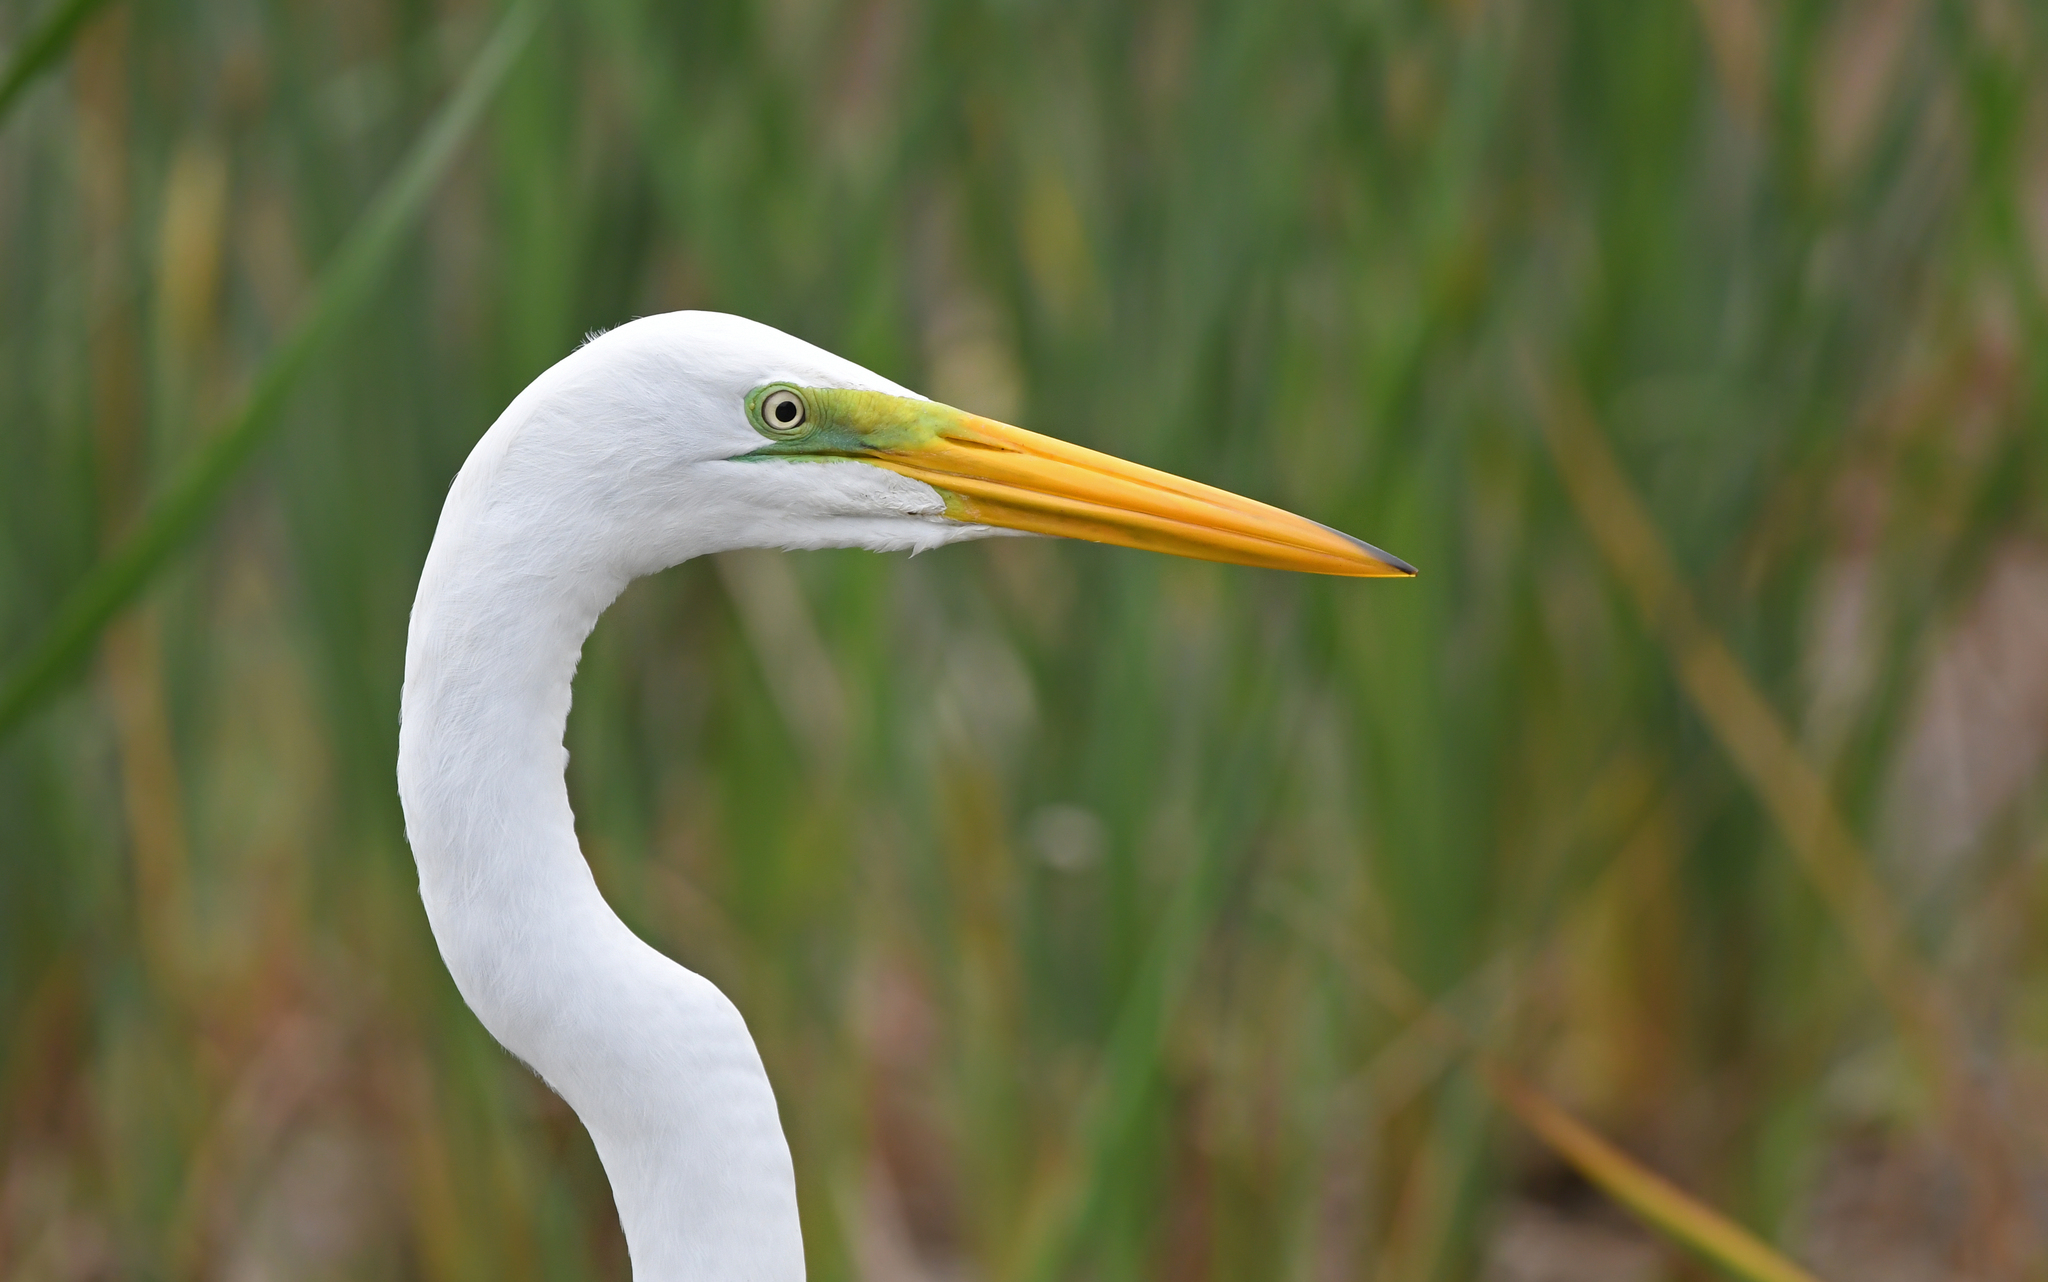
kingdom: Animalia
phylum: Chordata
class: Aves
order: Pelecaniformes
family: Ardeidae
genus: Ardea
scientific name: Ardea alba
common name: Great egret
